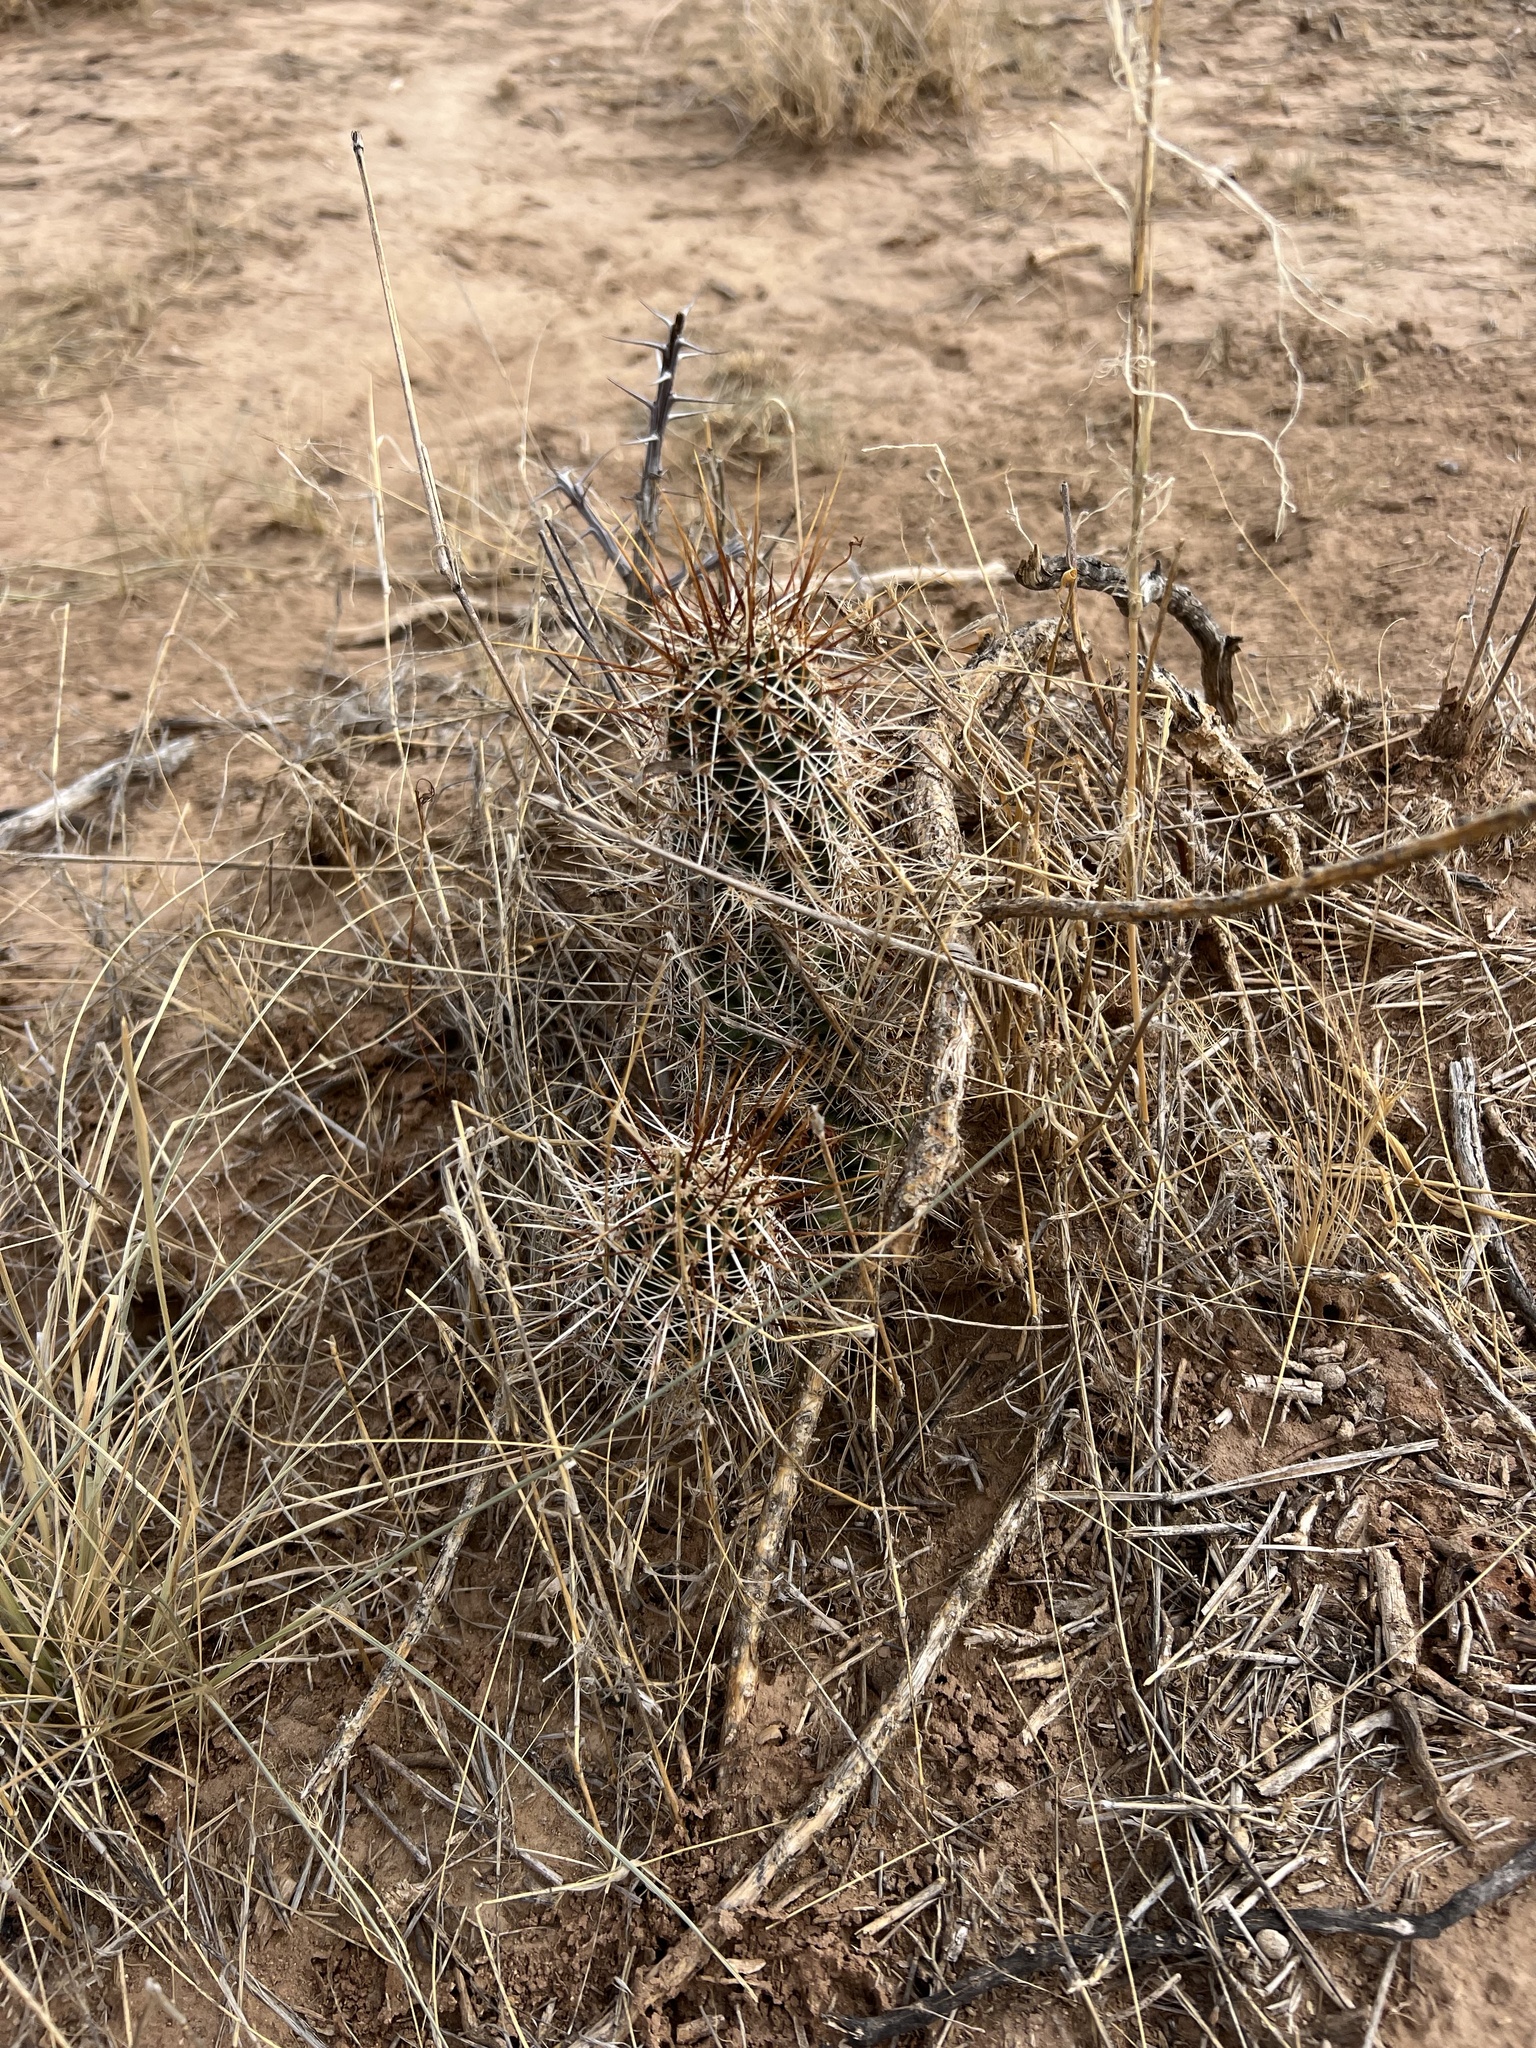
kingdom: Plantae
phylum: Tracheophyta
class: Magnoliopsida
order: Caryophyllales
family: Cactaceae
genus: Echinocereus
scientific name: Echinocereus fasciculatus
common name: Bundle hedgehog
